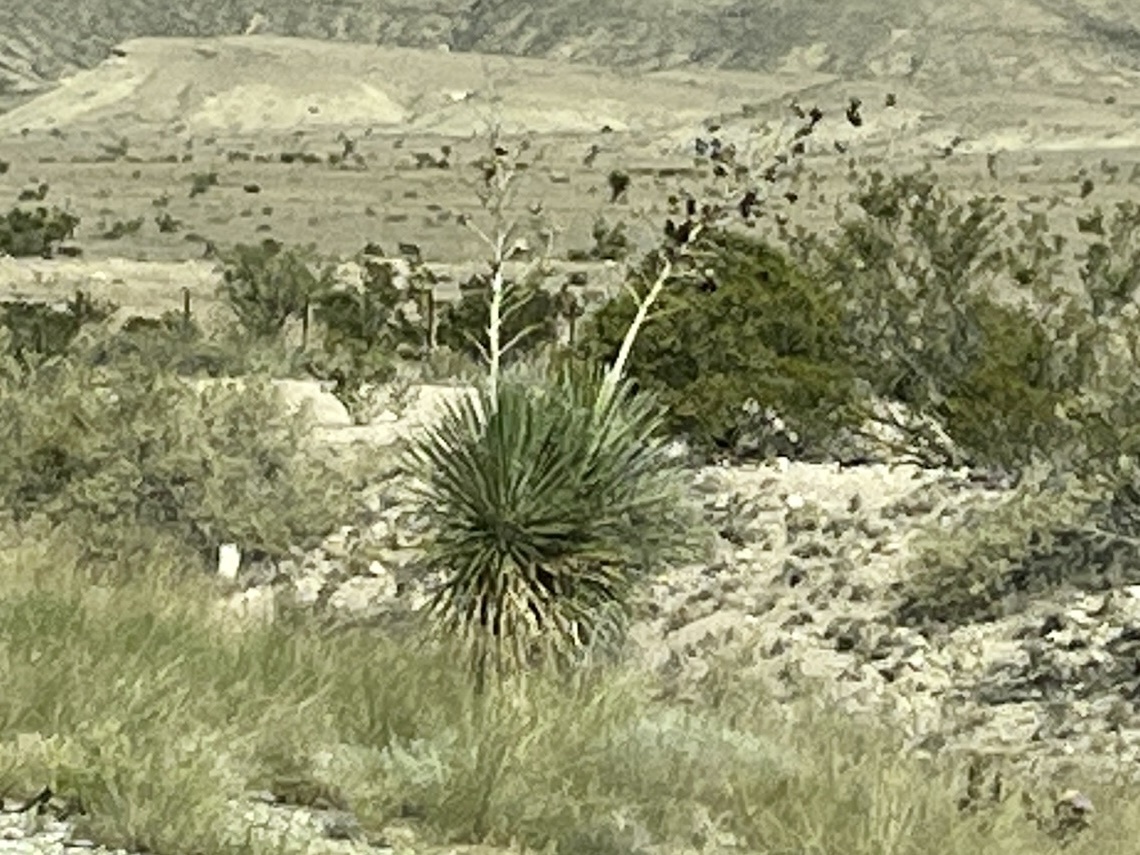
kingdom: Plantae
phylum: Tracheophyta
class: Liliopsida
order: Asparagales
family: Asparagaceae
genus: Yucca
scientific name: Yucca elata
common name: Palmella
